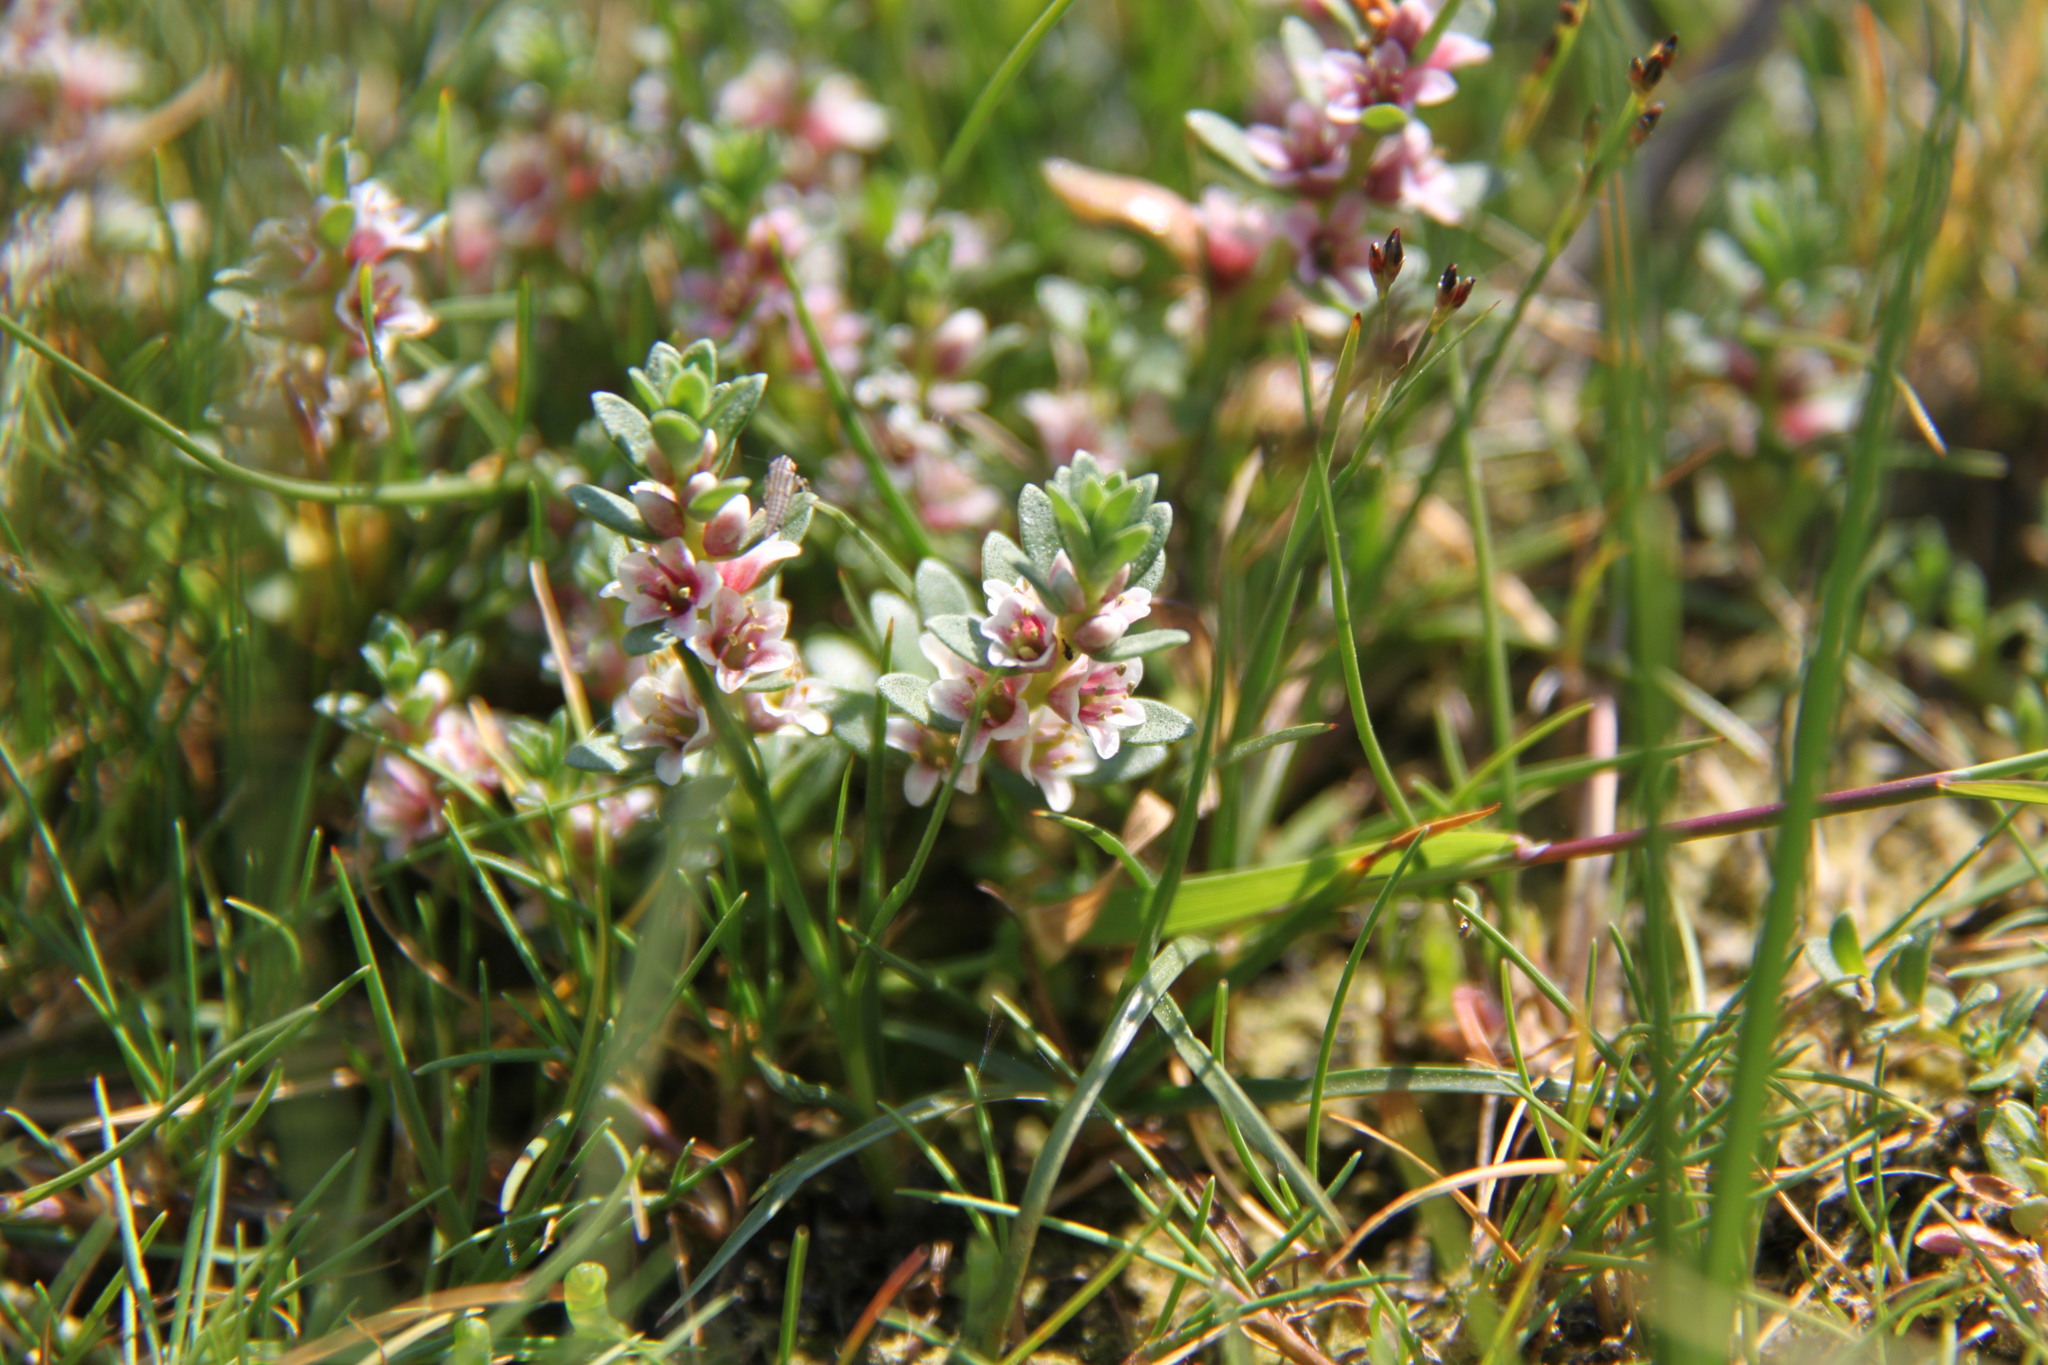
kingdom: Plantae
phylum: Tracheophyta
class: Magnoliopsida
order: Ericales
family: Primulaceae
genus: Lysimachia
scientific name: Lysimachia maritima
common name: Sea milkwort
